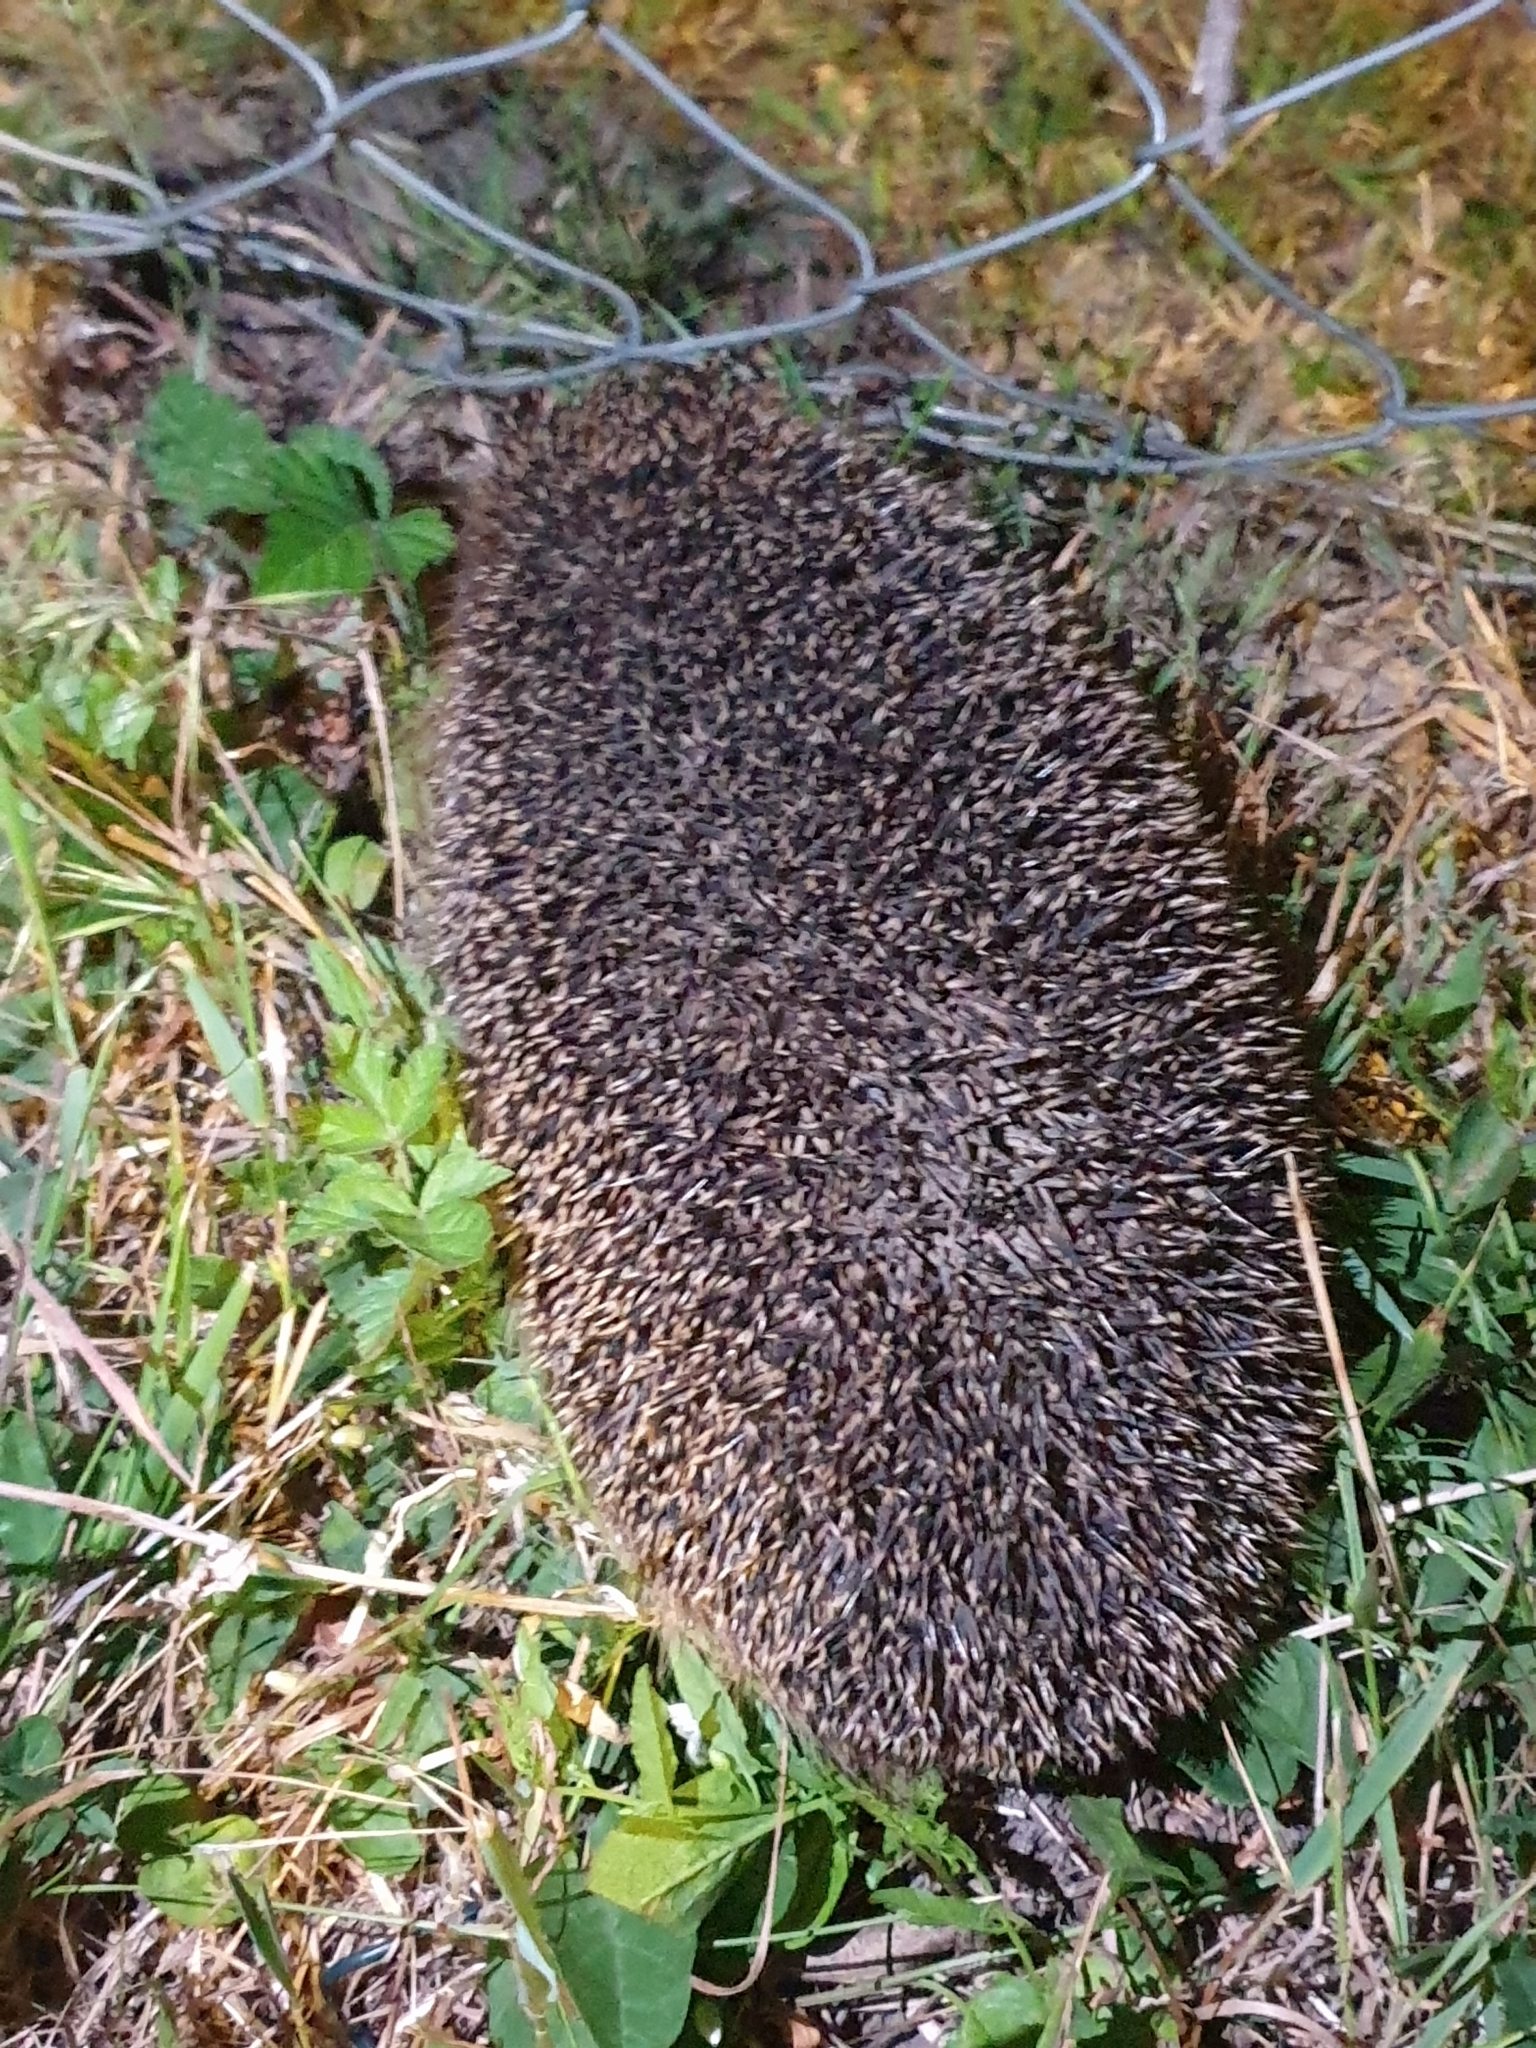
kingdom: Animalia
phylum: Chordata
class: Mammalia
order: Erinaceomorpha
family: Erinaceidae
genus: Erinaceus
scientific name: Erinaceus europaeus
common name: West european hedgehog
